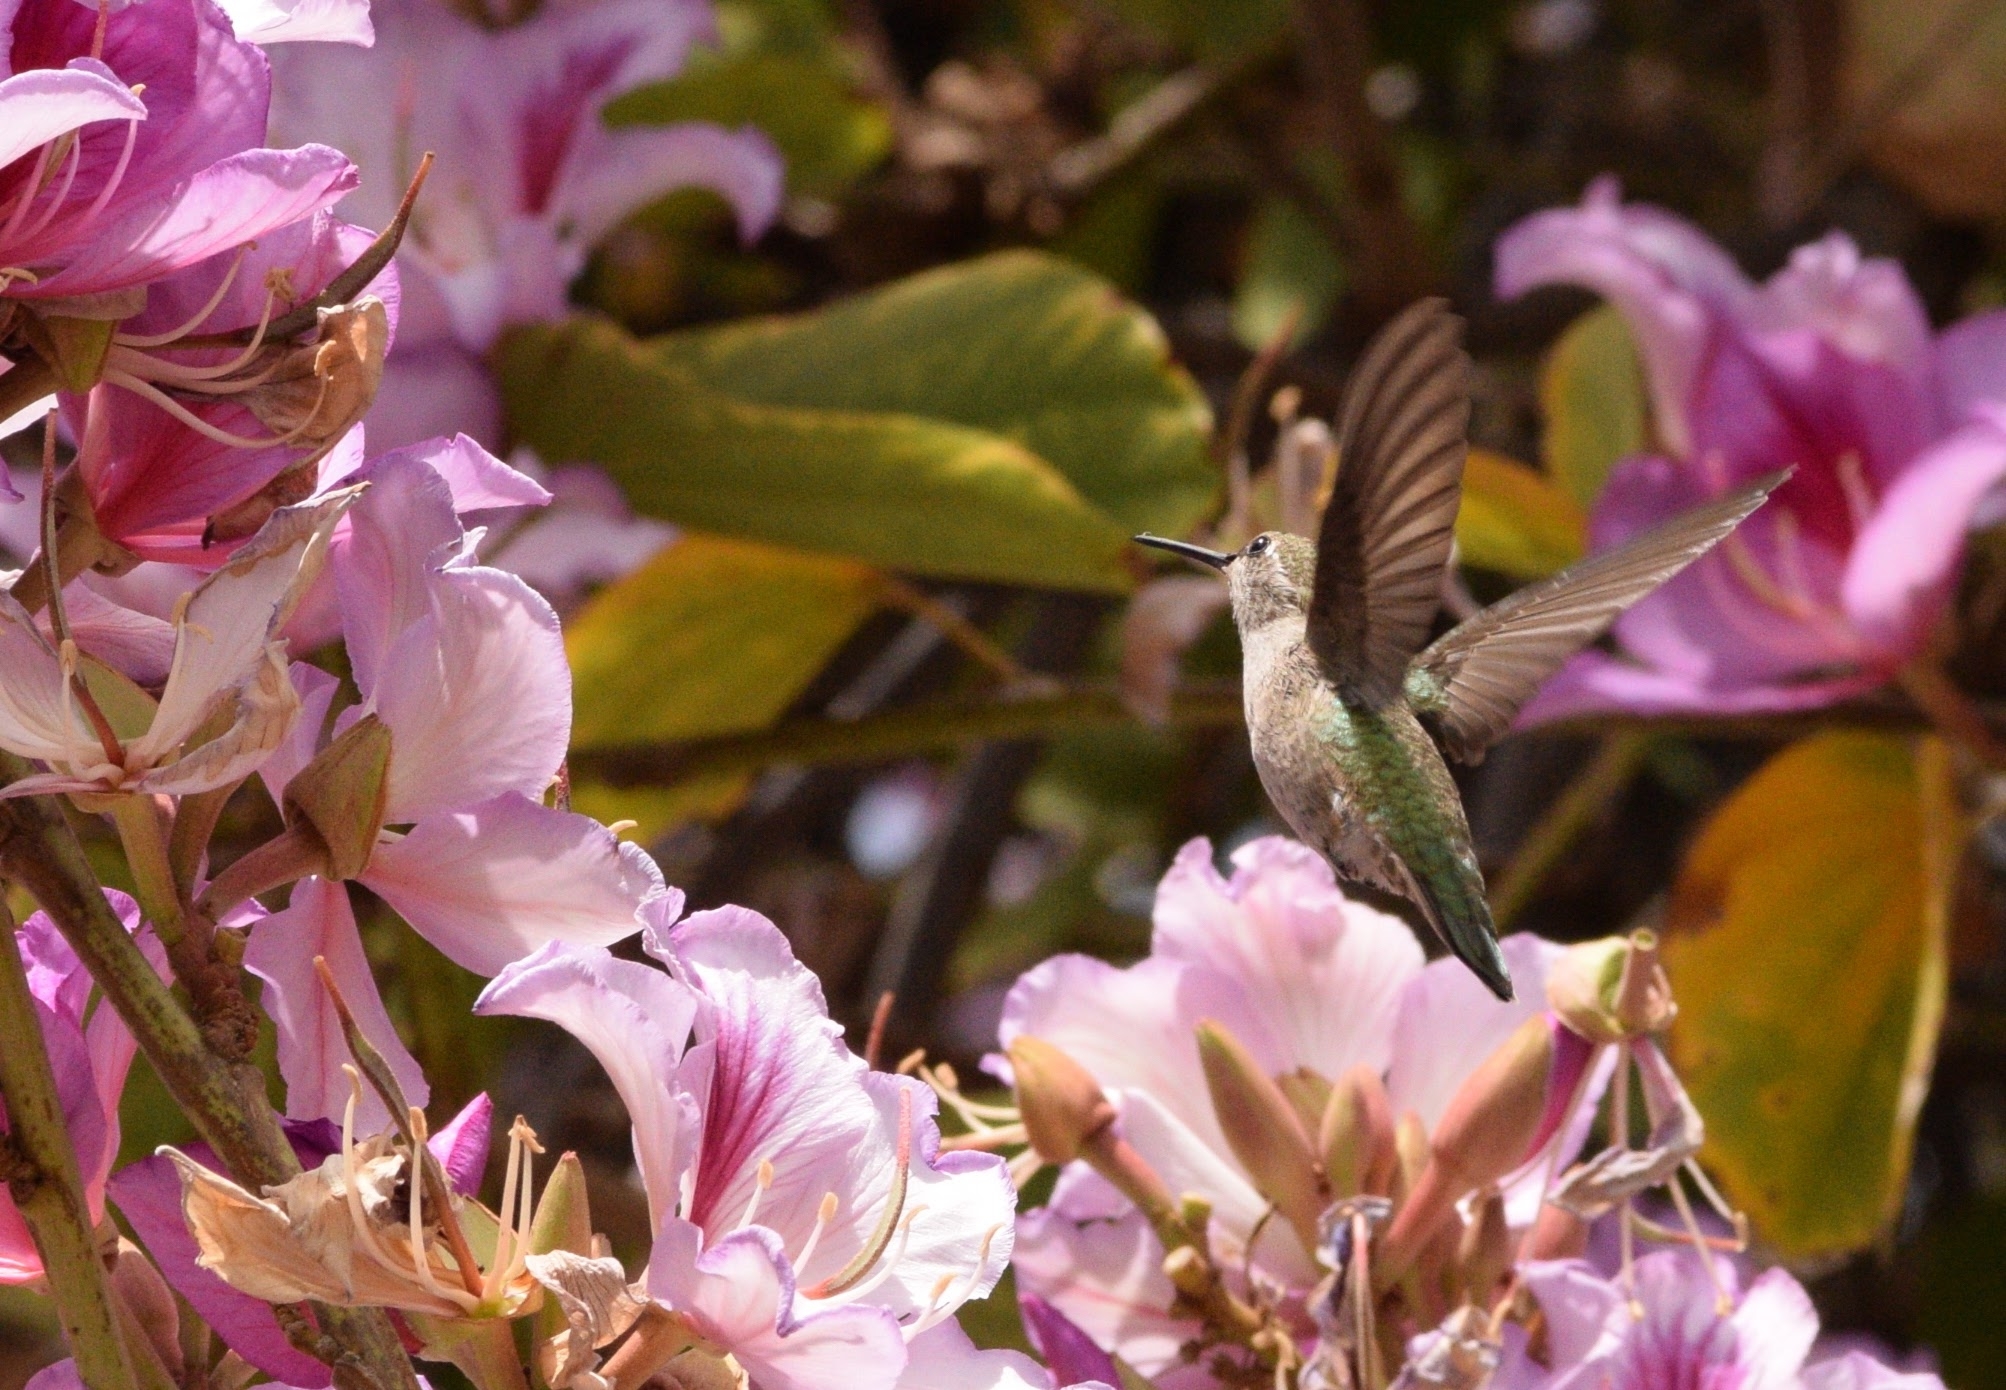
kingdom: Animalia
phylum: Chordata
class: Aves
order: Apodiformes
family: Trochilidae
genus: Calypte
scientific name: Calypte anna
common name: Anna's hummingbird
